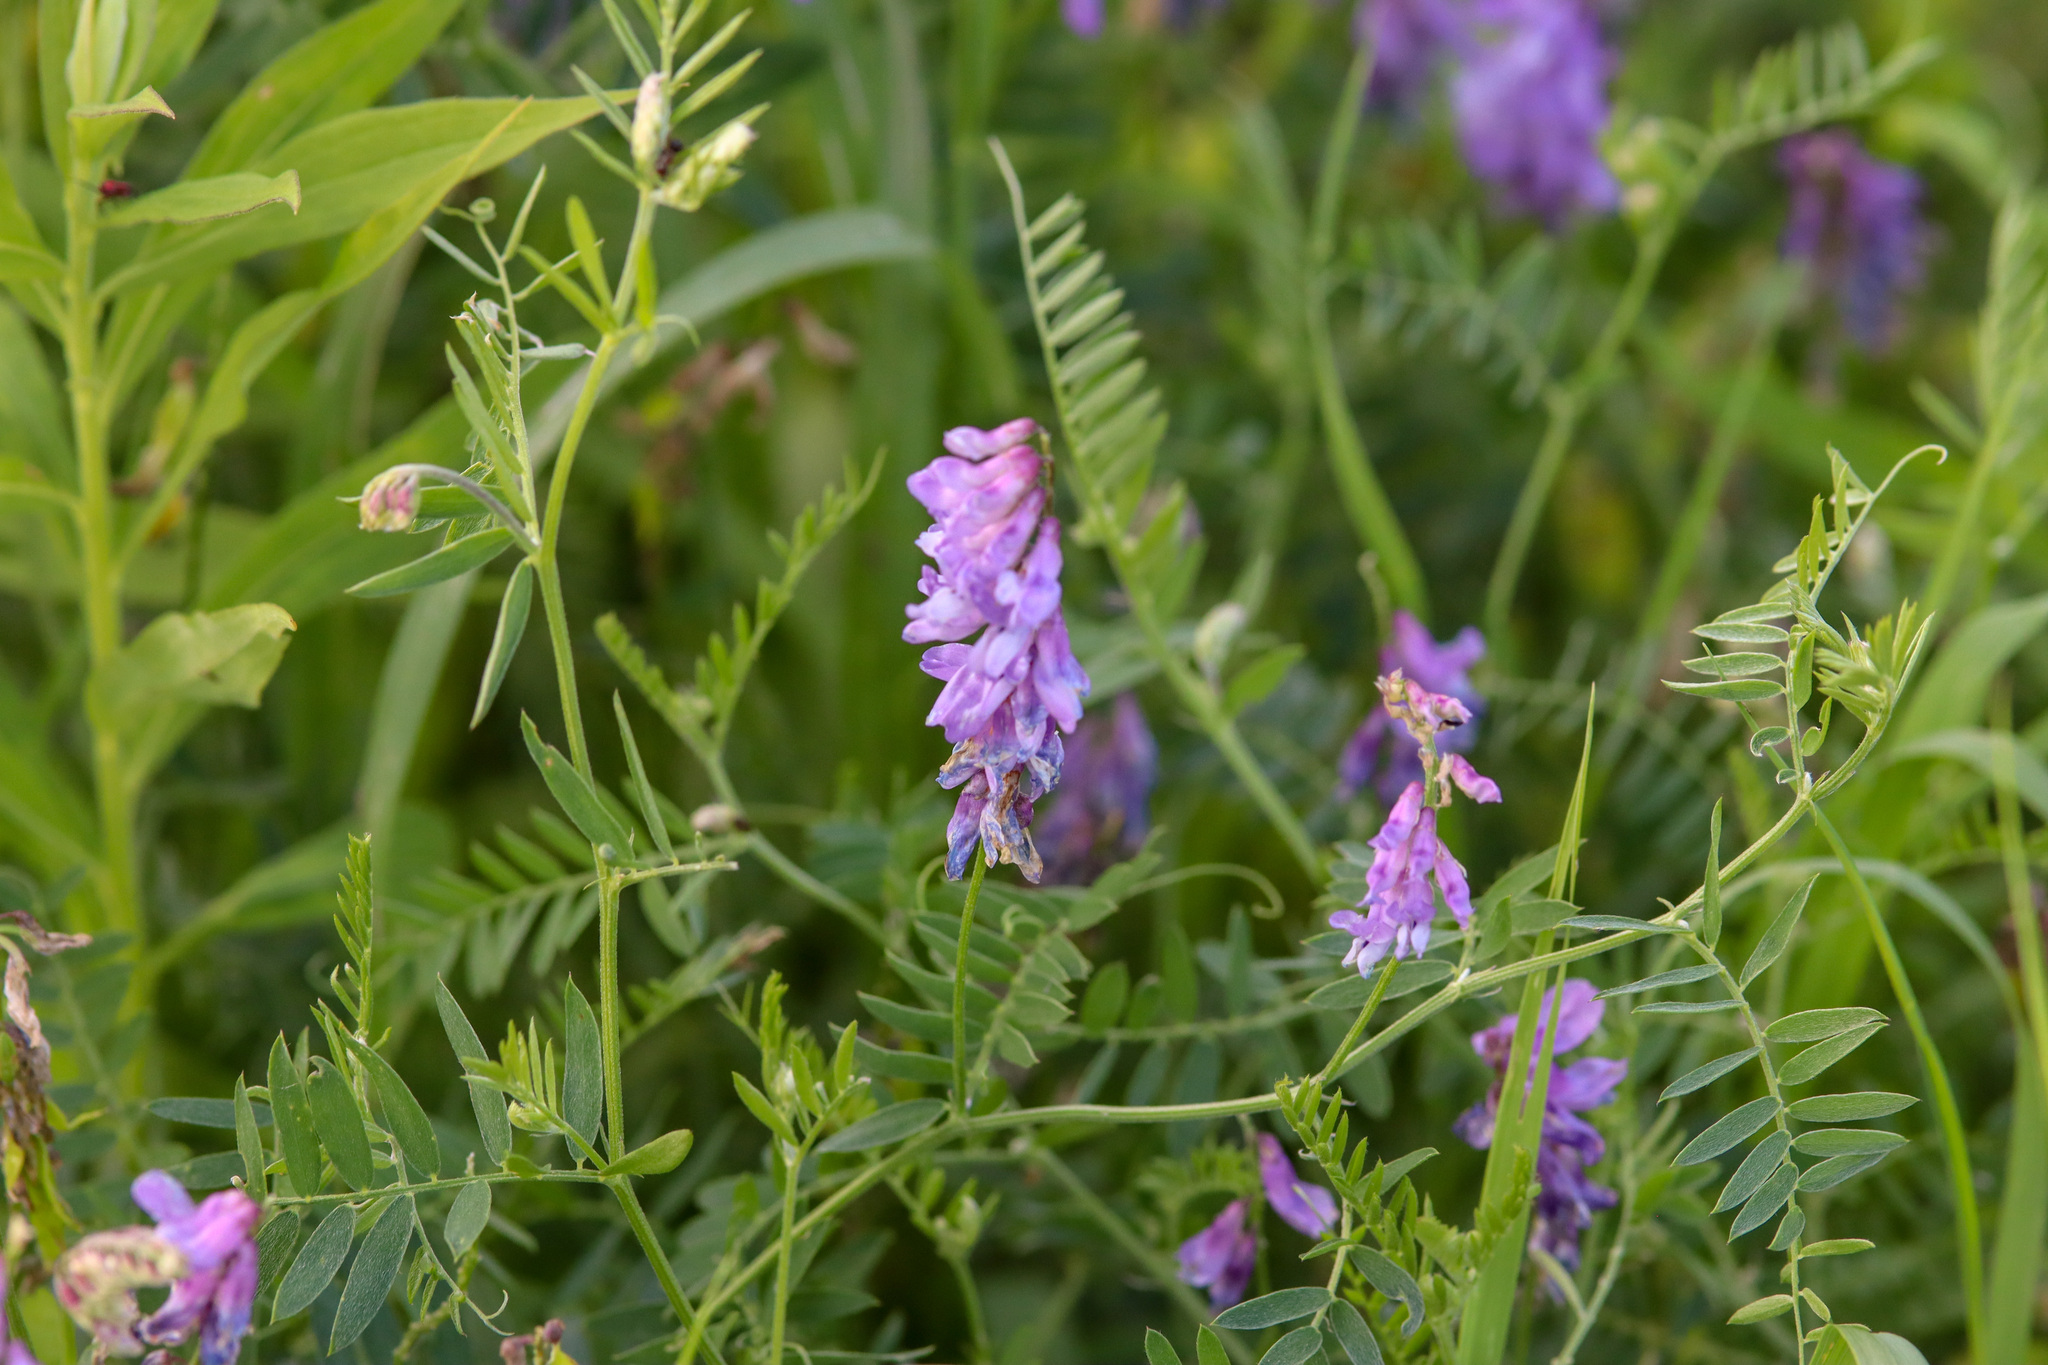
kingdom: Plantae
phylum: Tracheophyta
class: Magnoliopsida
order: Fabales
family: Fabaceae
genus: Vicia
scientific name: Vicia cracca
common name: Bird vetch
